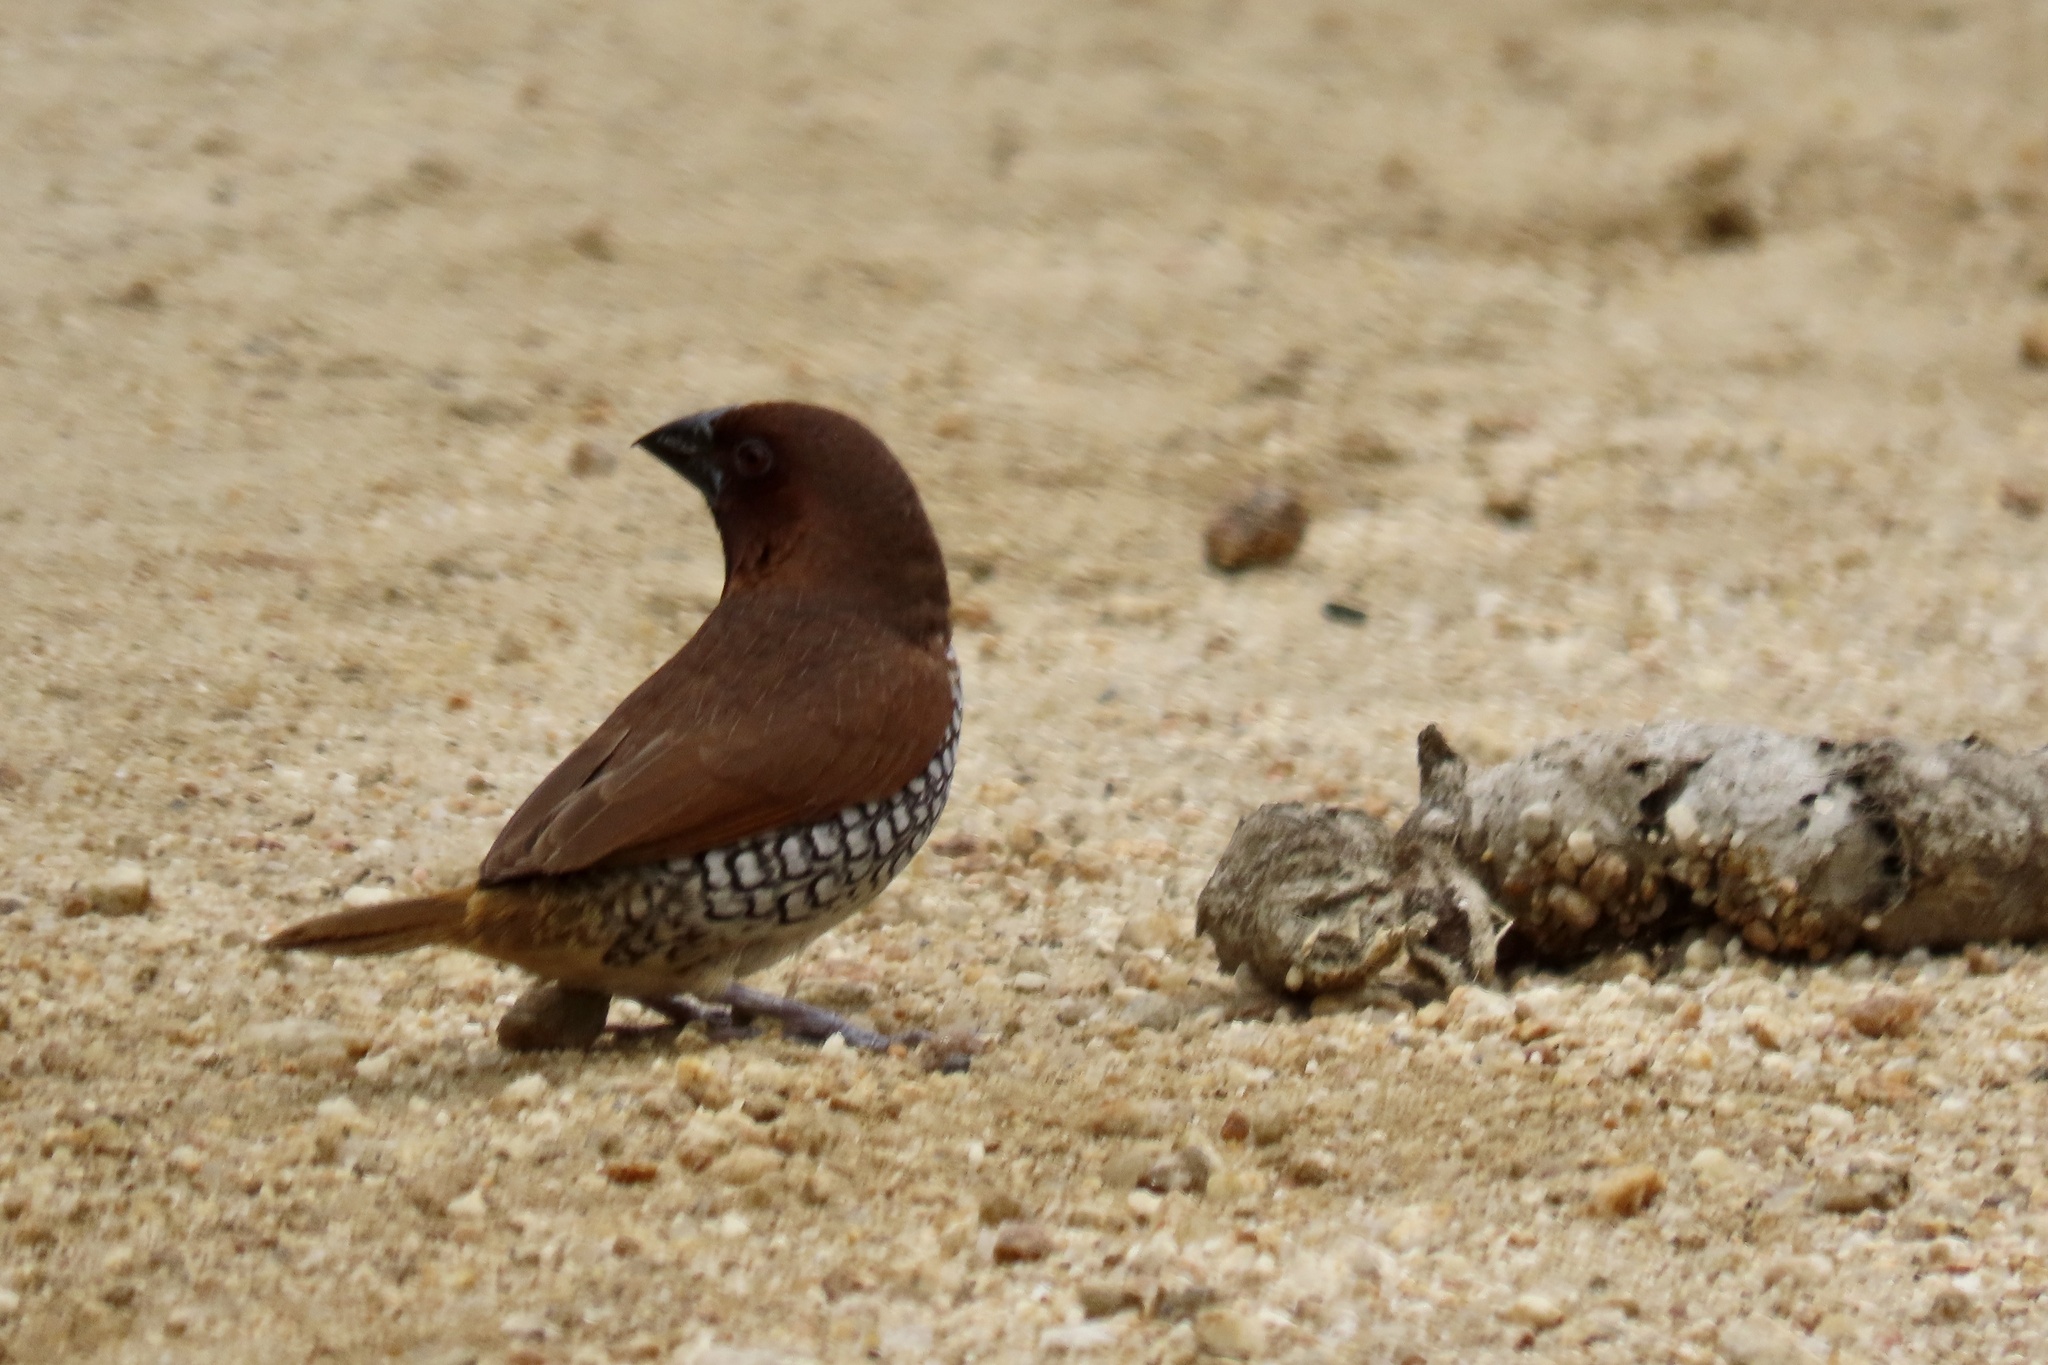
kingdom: Animalia
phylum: Chordata
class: Aves
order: Passeriformes
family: Estrildidae
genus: Lonchura
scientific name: Lonchura punctulata
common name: Scaly-breasted munia
